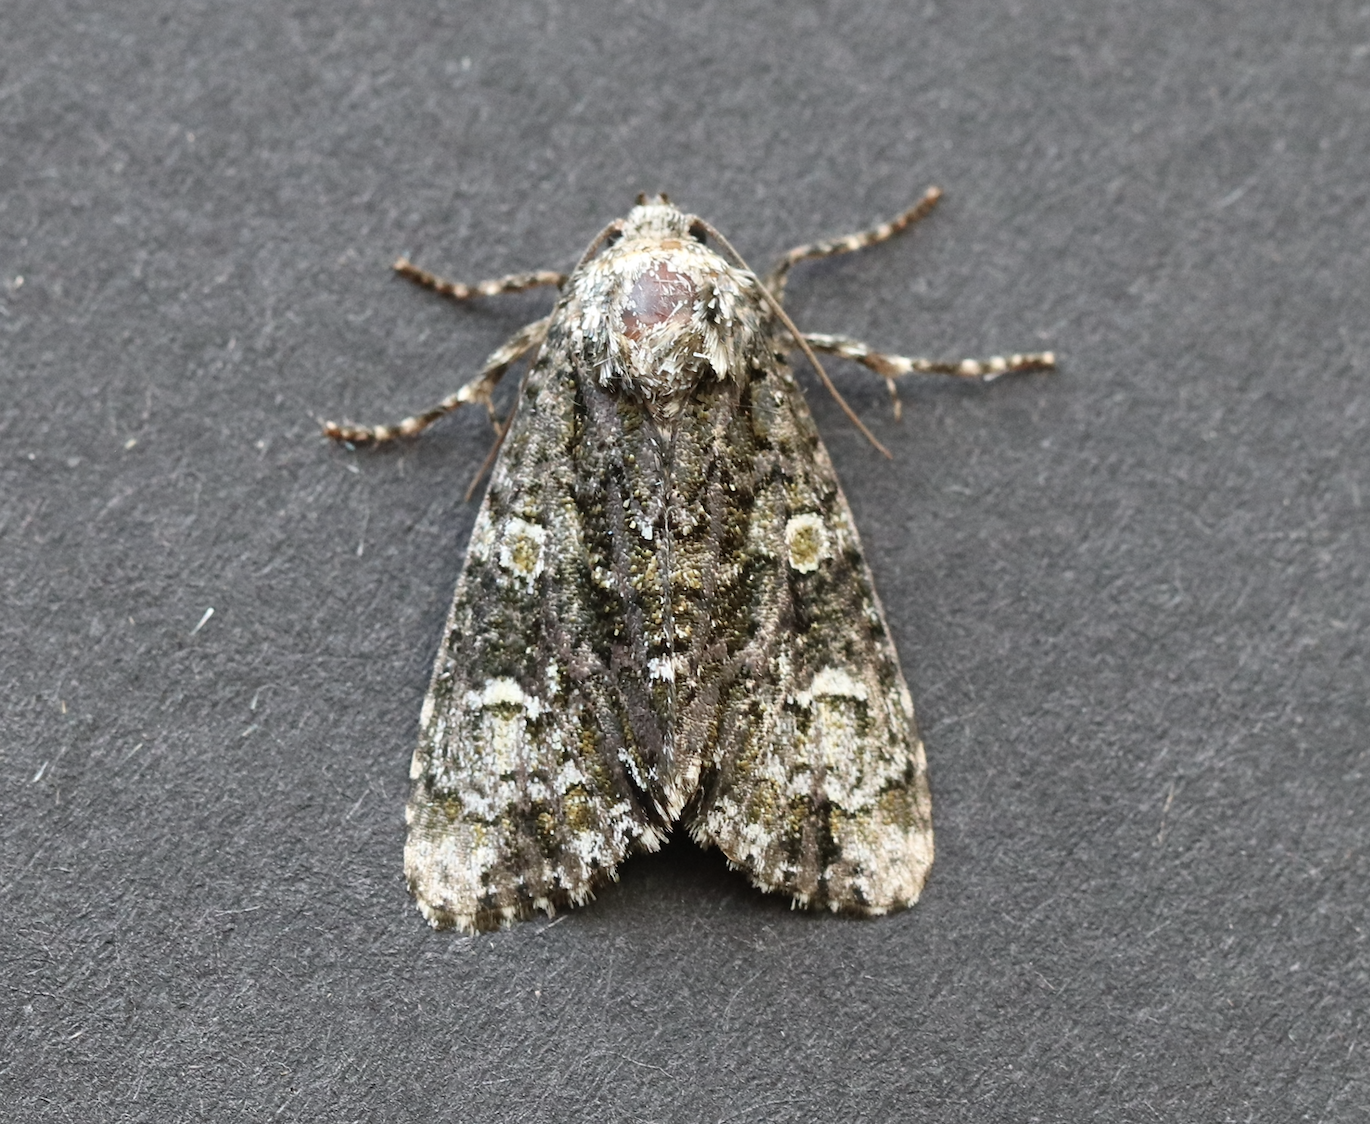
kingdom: Animalia
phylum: Arthropoda
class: Insecta
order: Lepidoptera
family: Noctuidae
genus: Craniophora
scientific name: Craniophora ligustri
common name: Coronet
